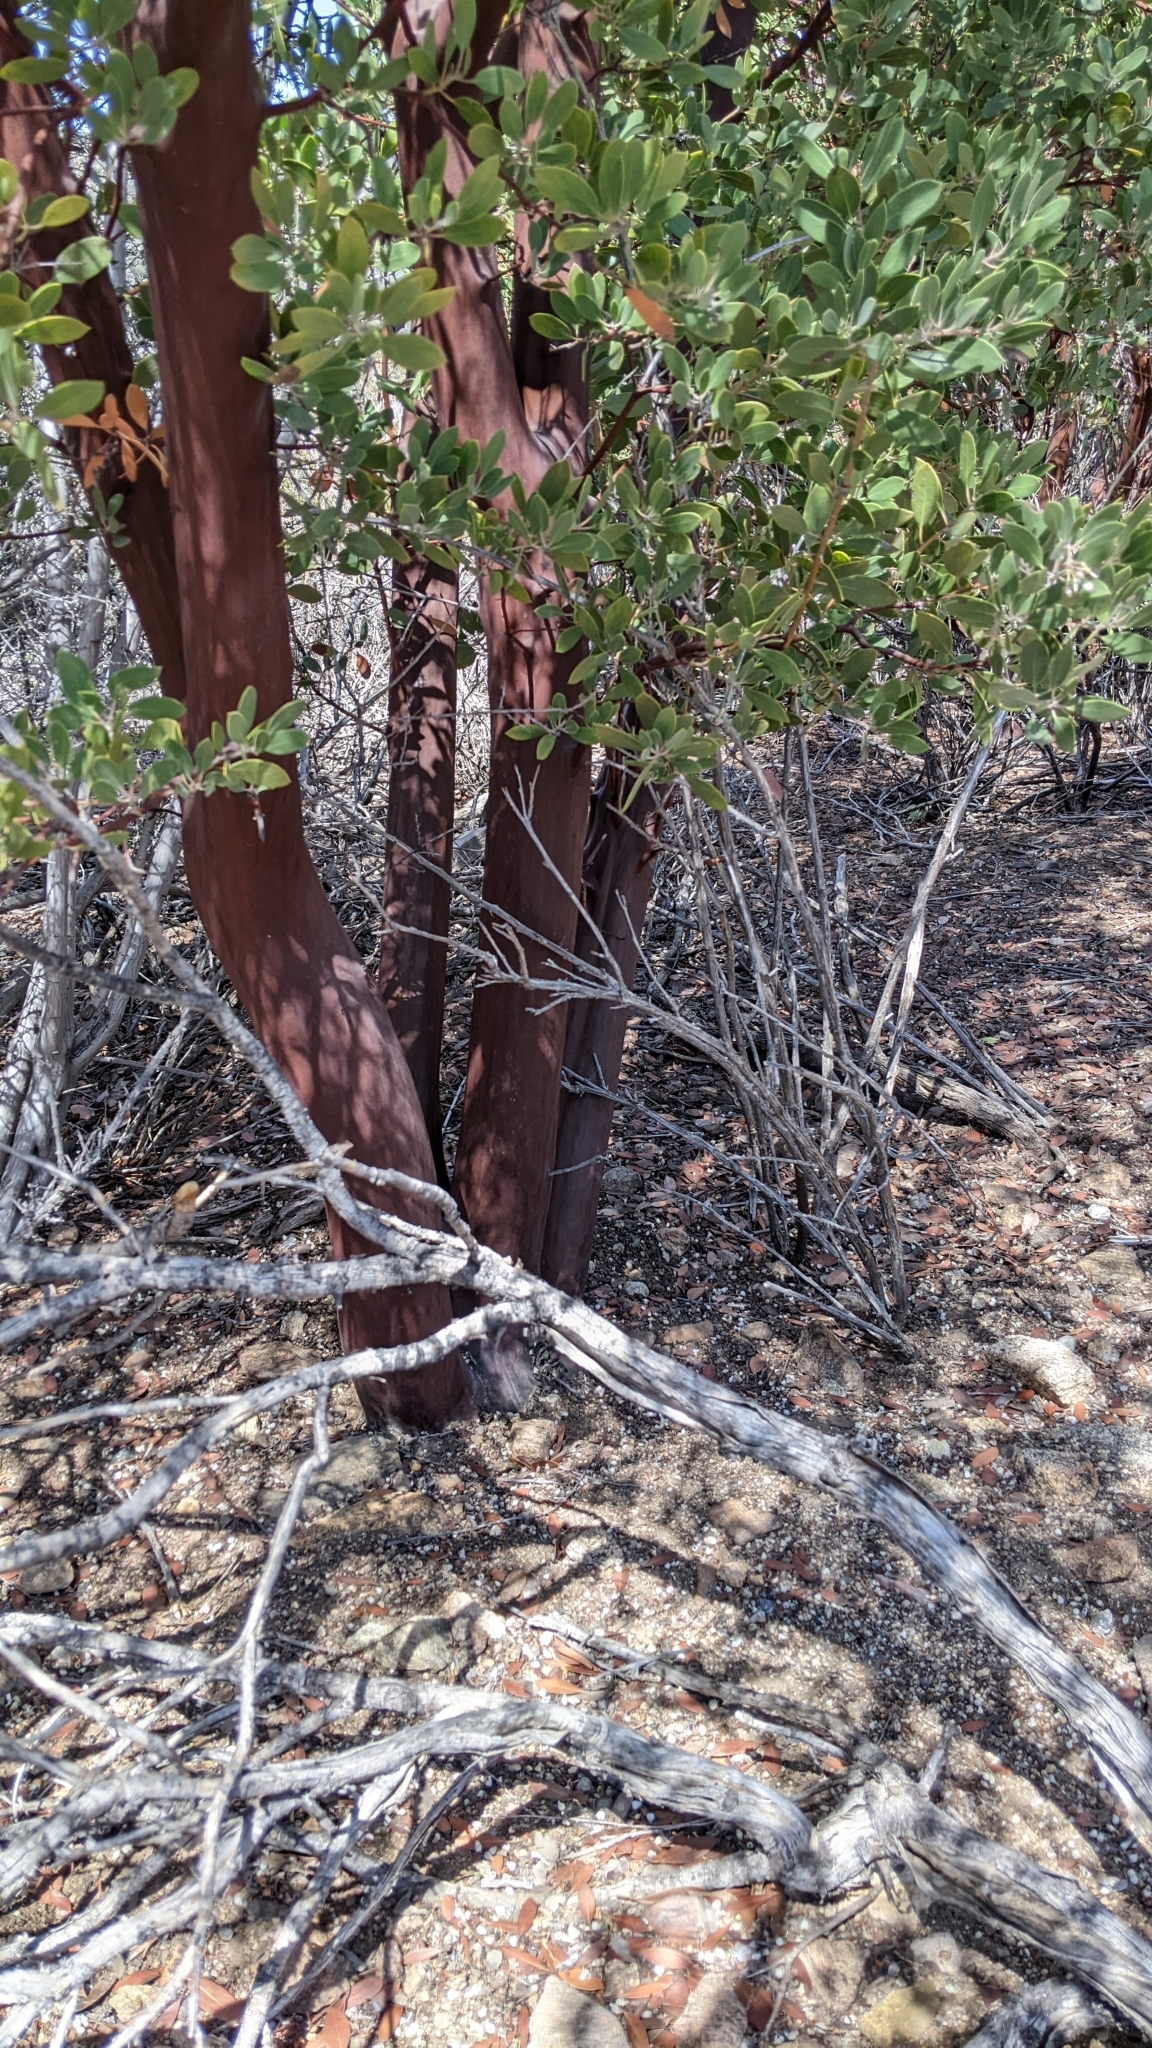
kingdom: Plantae
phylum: Tracheophyta
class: Magnoliopsida
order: Ericales
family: Ericaceae
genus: Arctostaphylos
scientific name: Arctostaphylos pungens
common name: Mexican manzanita
